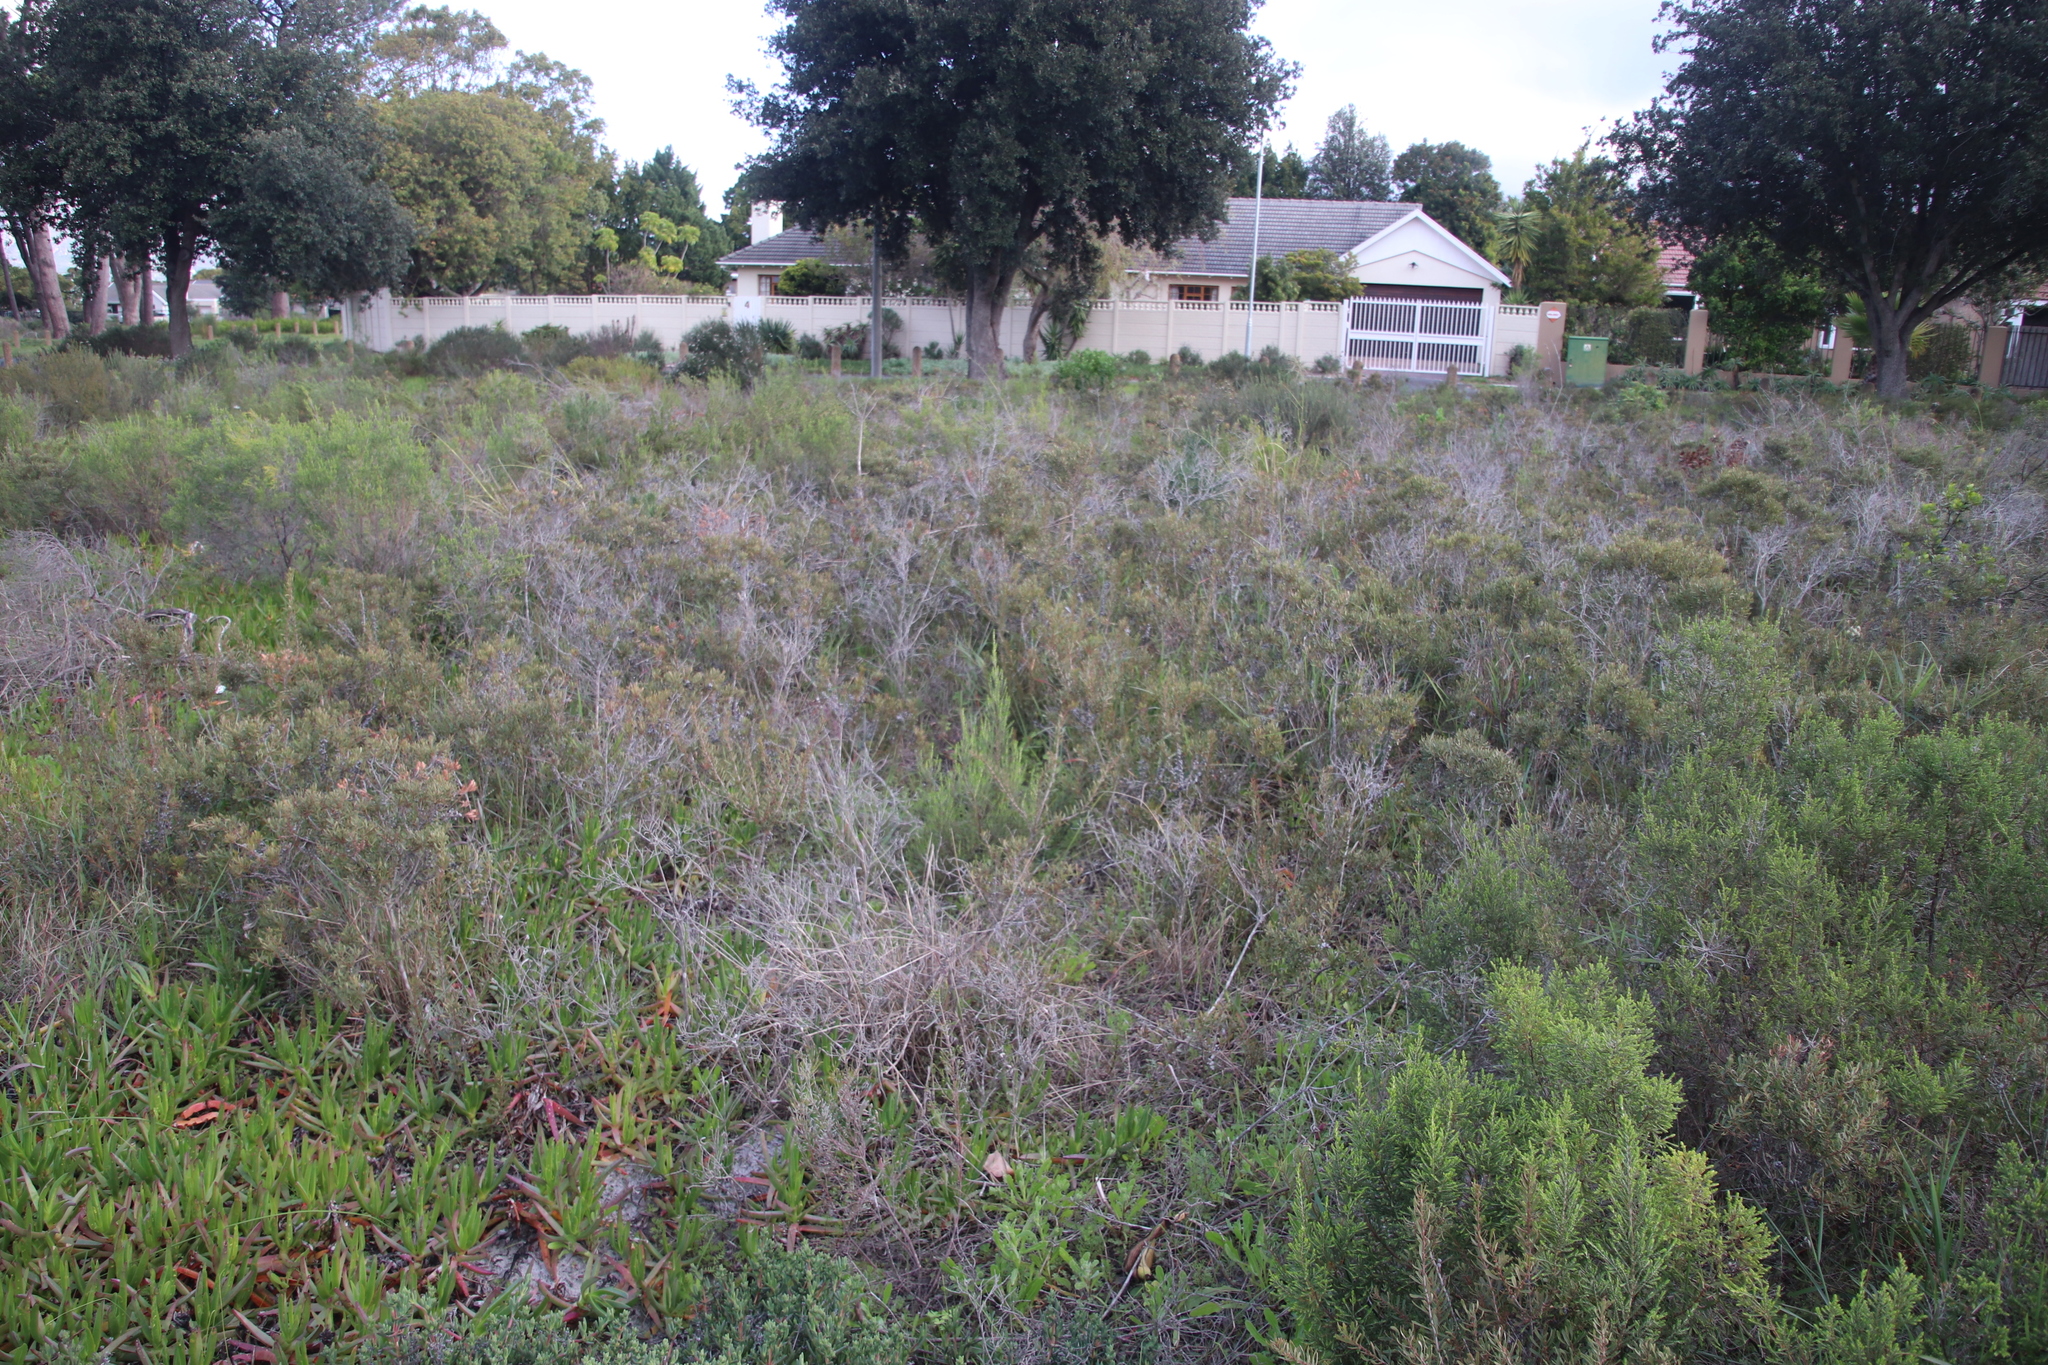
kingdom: Plantae
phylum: Tracheophyta
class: Magnoliopsida
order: Fagales
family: Myricaceae
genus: Morella
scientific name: Morella quercifolia
